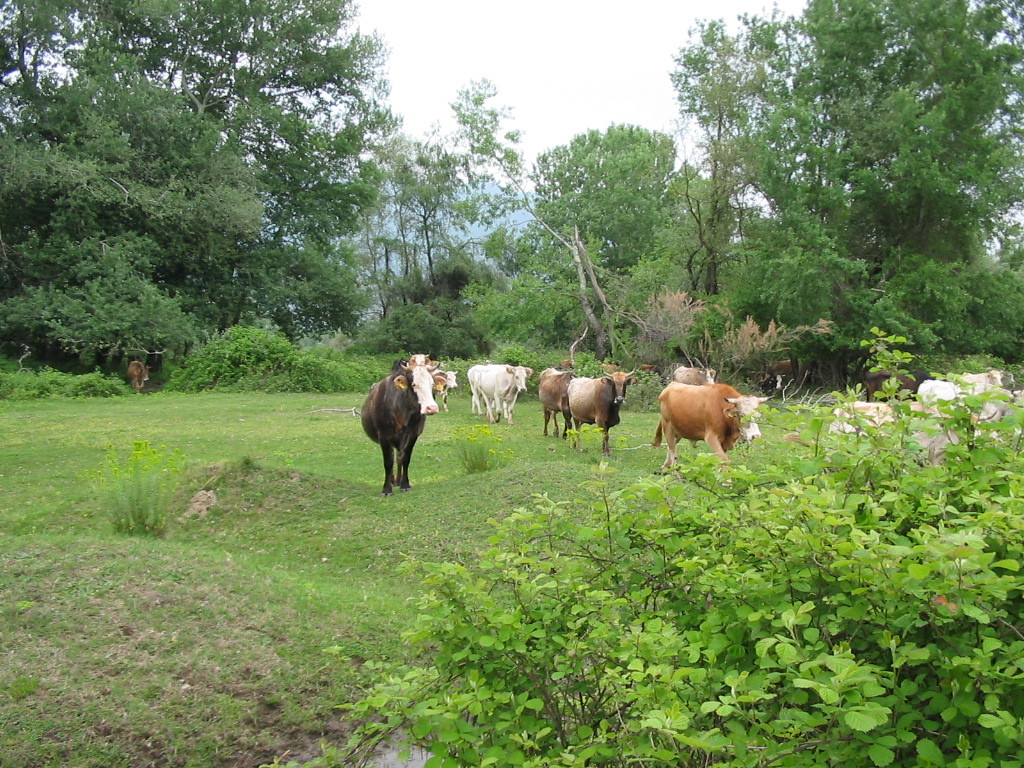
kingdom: Animalia
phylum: Chordata
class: Mammalia
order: Artiodactyla
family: Bovidae
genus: Bos
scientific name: Bos taurus
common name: Domesticated cattle
